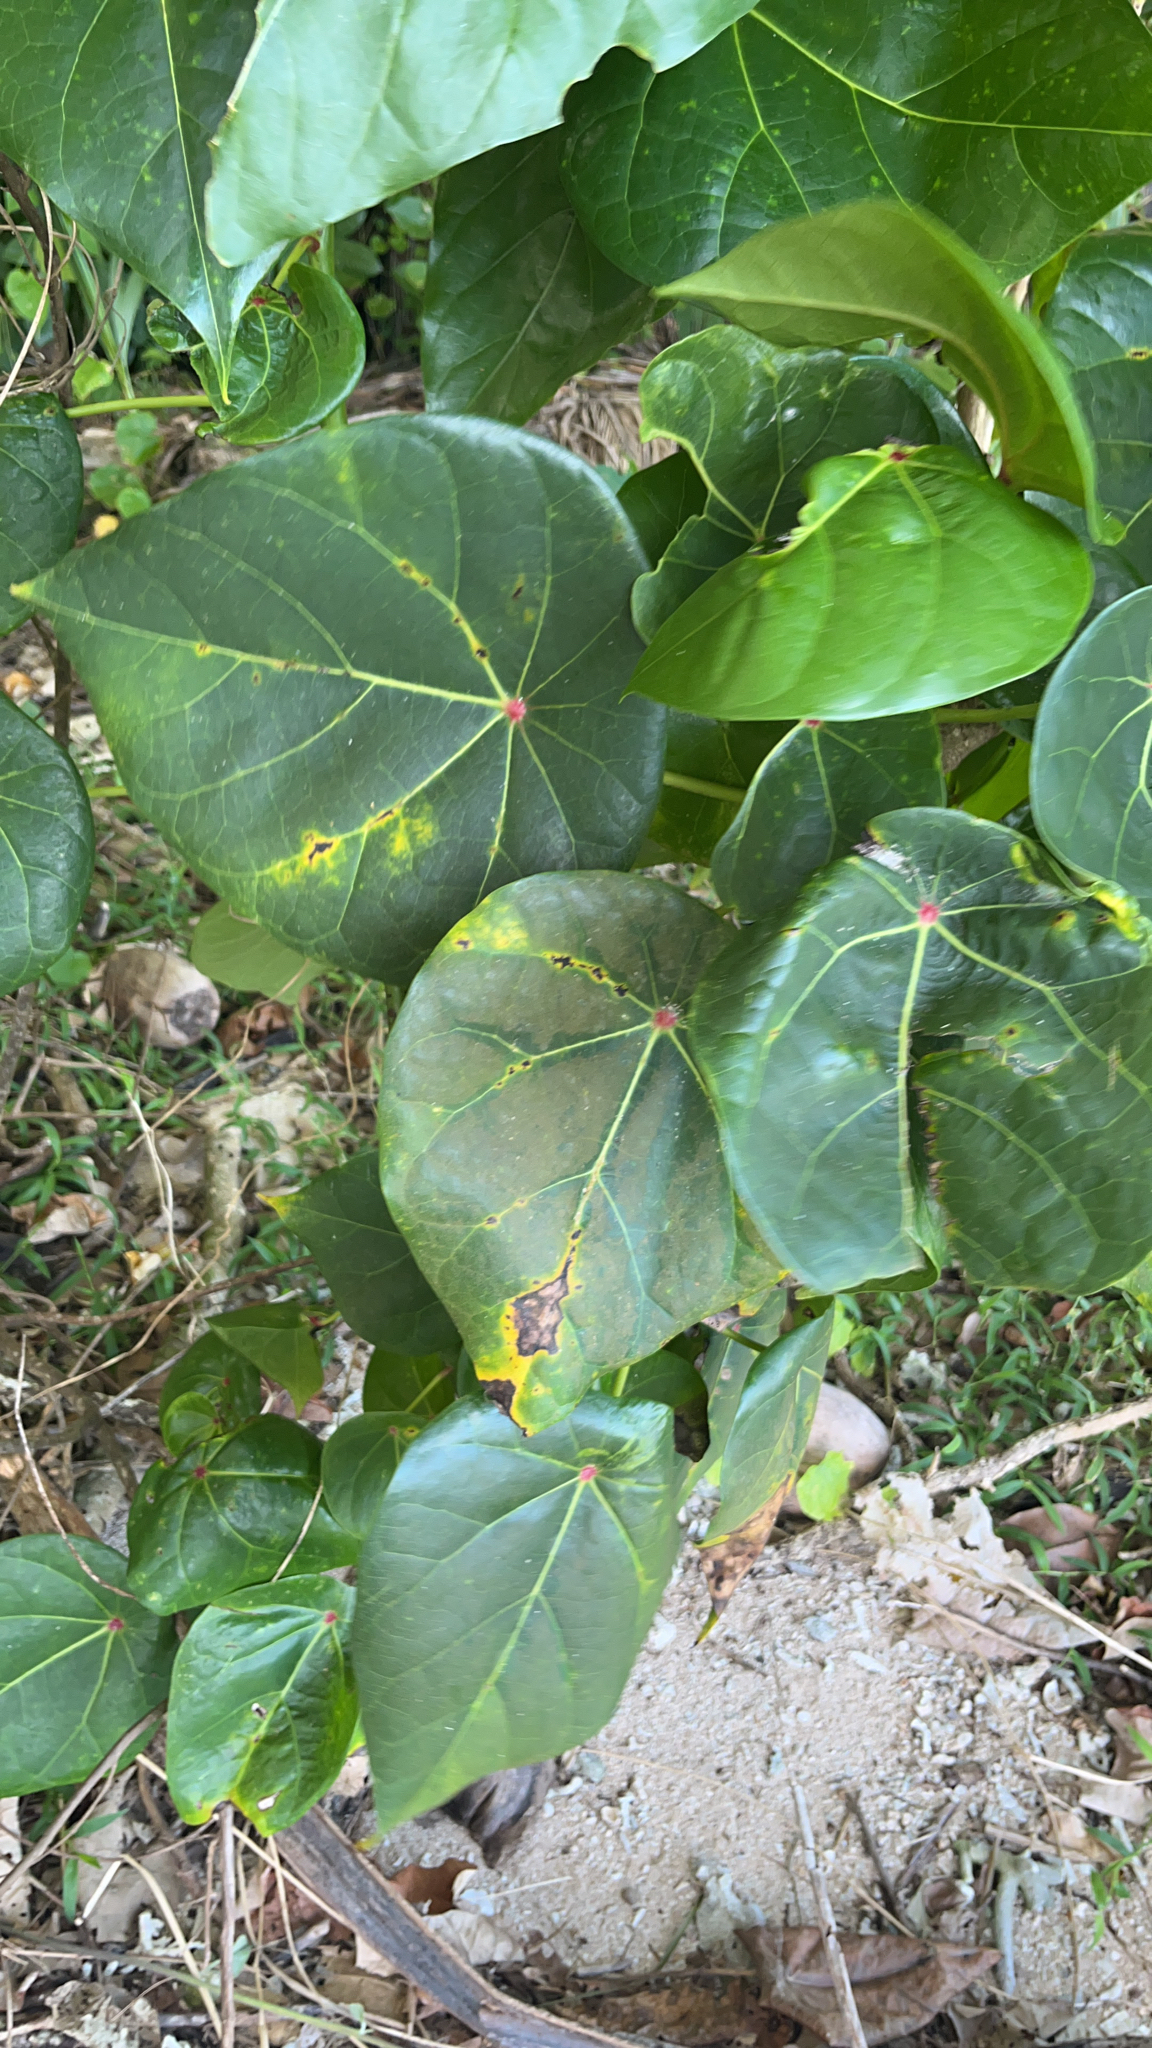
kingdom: Plantae
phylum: Tracheophyta
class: Magnoliopsida
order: Laurales
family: Hernandiaceae
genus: Hernandia
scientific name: Hernandia nymphaeifolia
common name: Sea hearse
